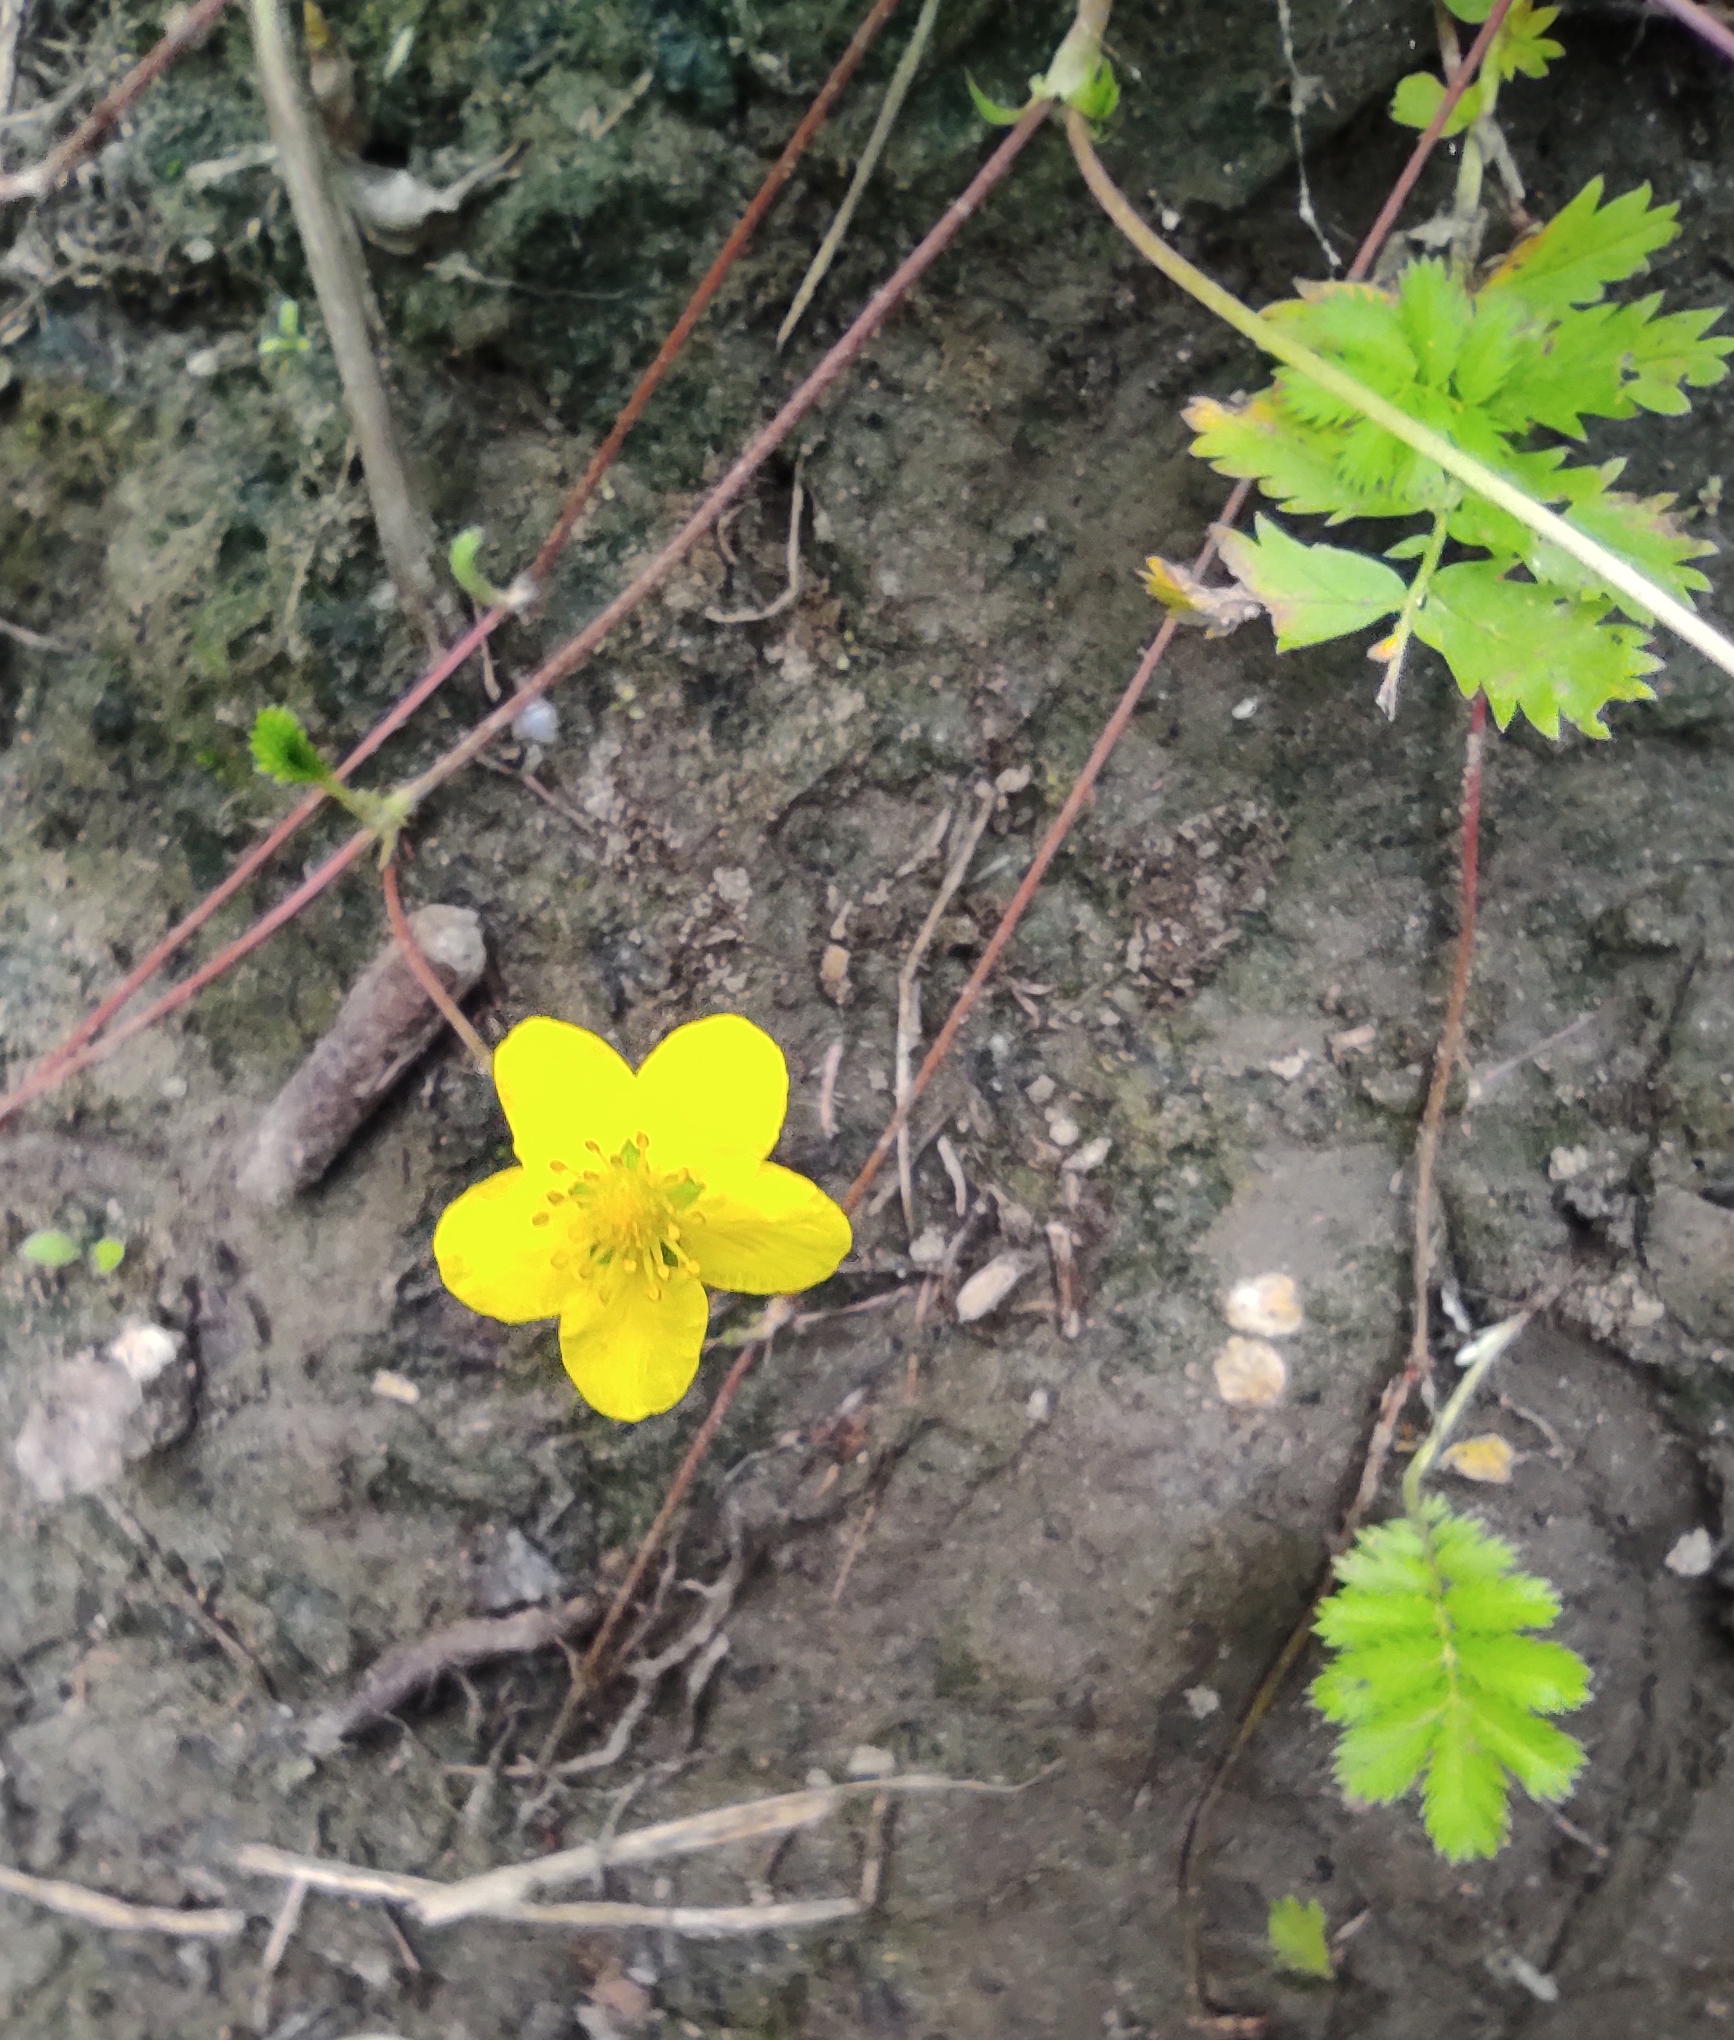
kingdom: Plantae
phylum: Tracheophyta
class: Magnoliopsida
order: Rosales
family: Rosaceae
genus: Argentina
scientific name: Argentina anserina
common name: Common silverweed
